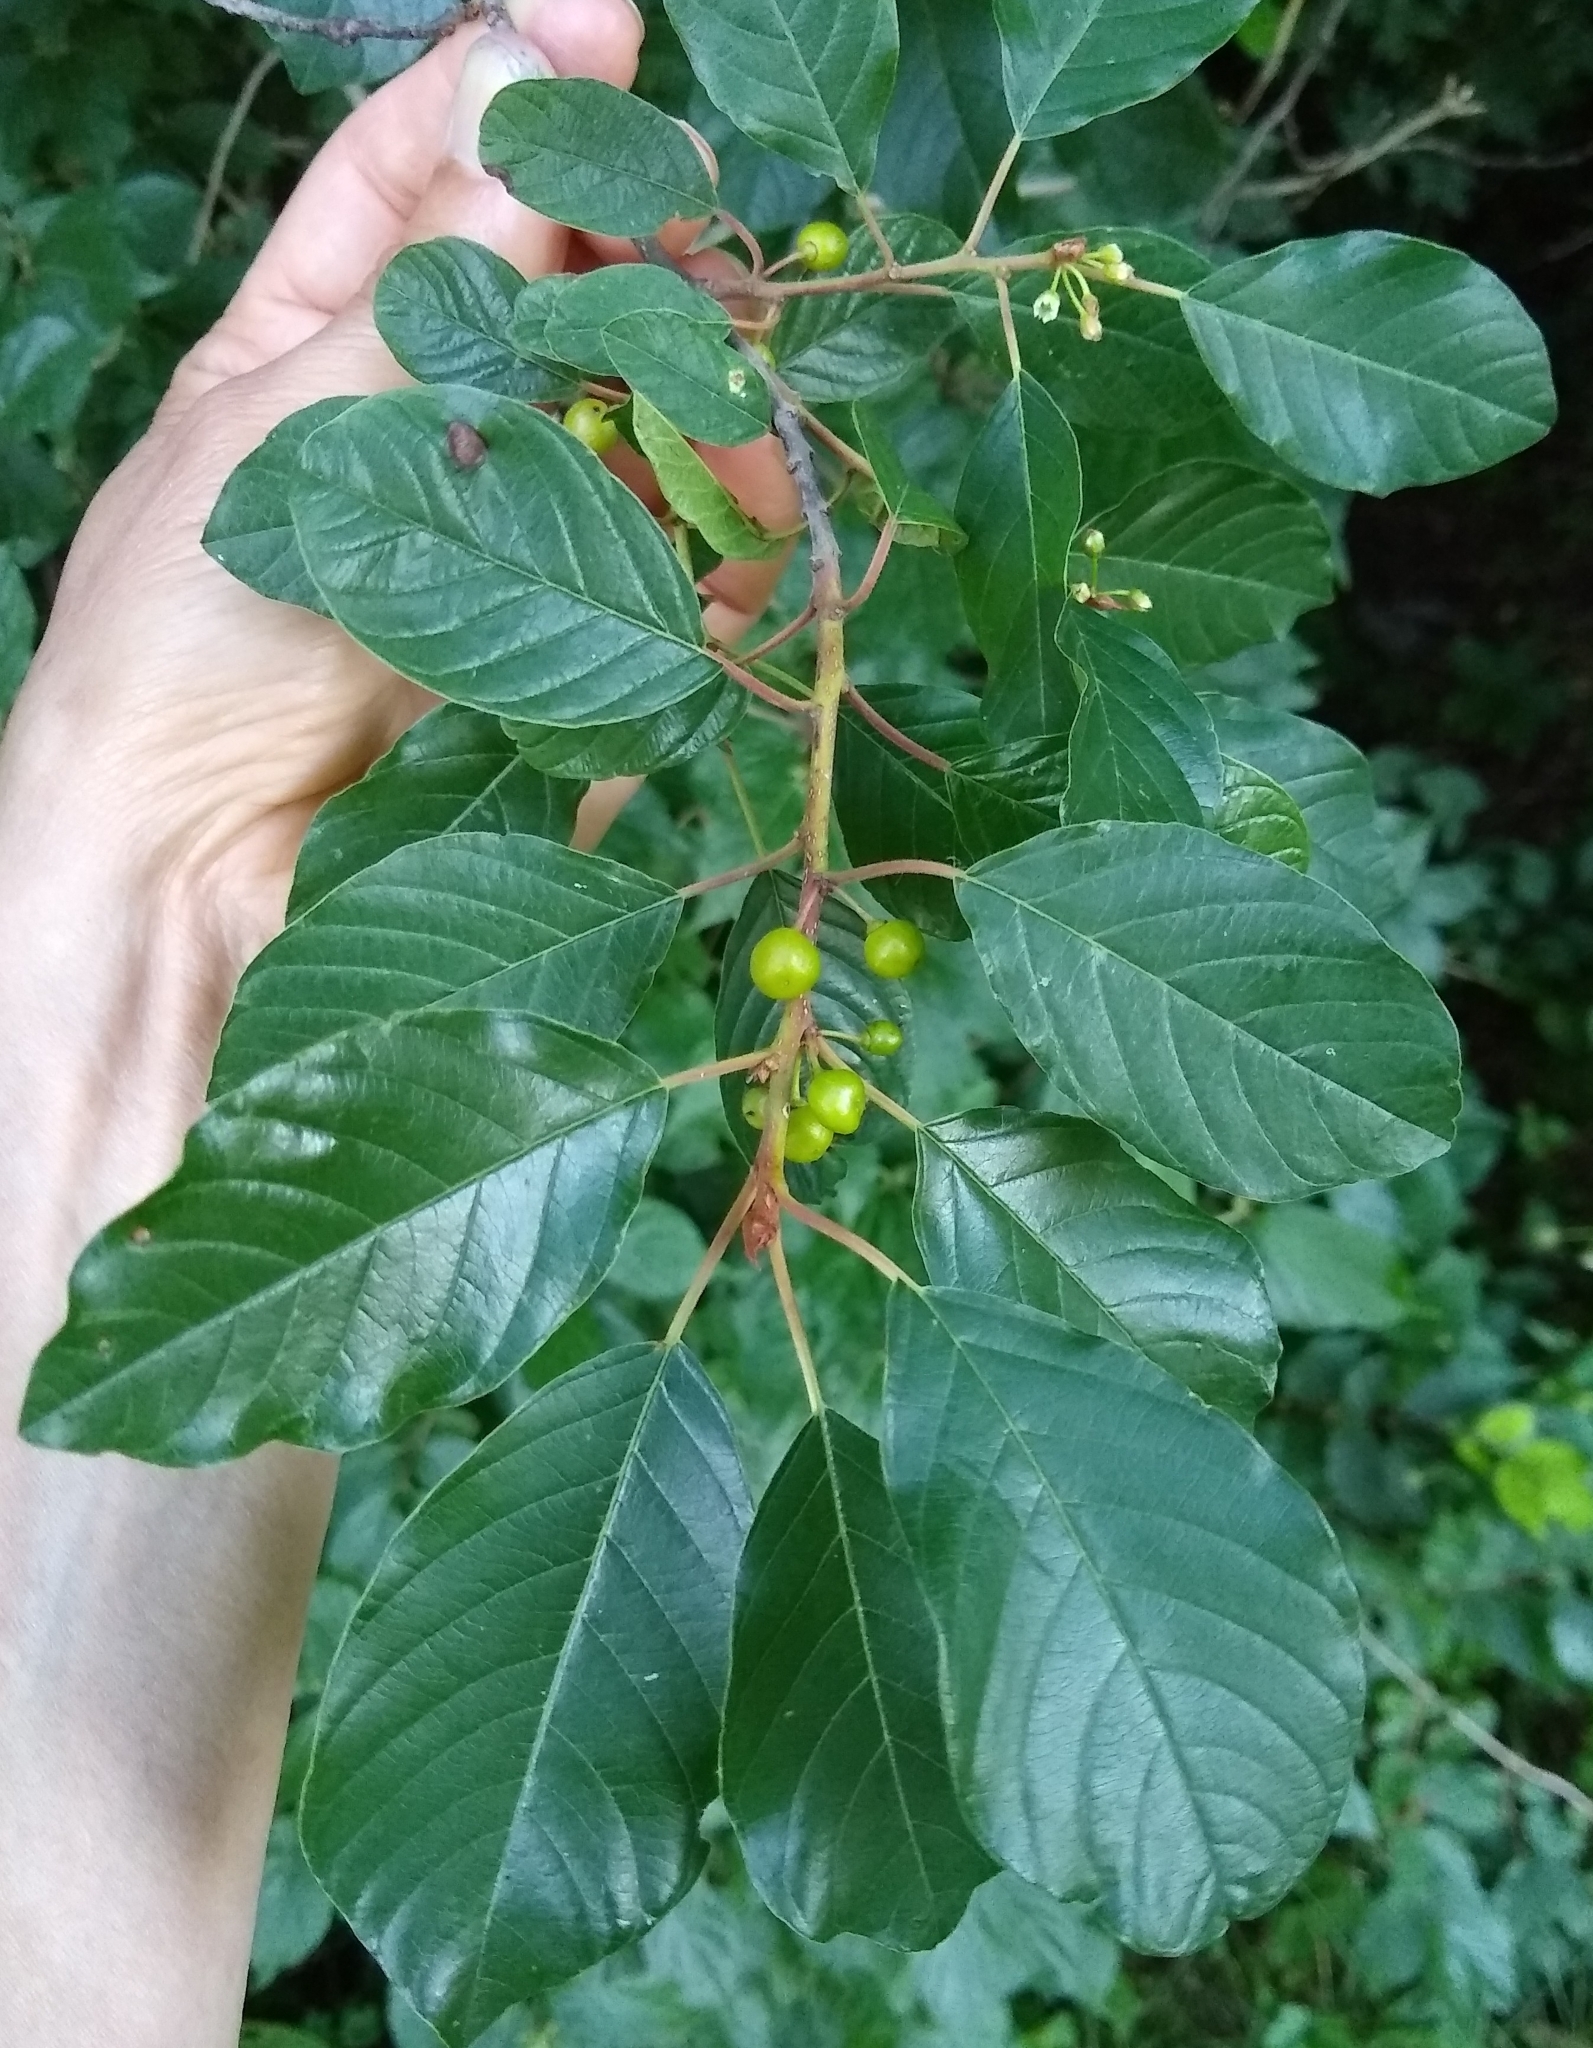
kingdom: Plantae
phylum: Tracheophyta
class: Magnoliopsida
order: Rosales
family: Rhamnaceae
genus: Frangula
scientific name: Frangula alnus
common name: Alder buckthorn
